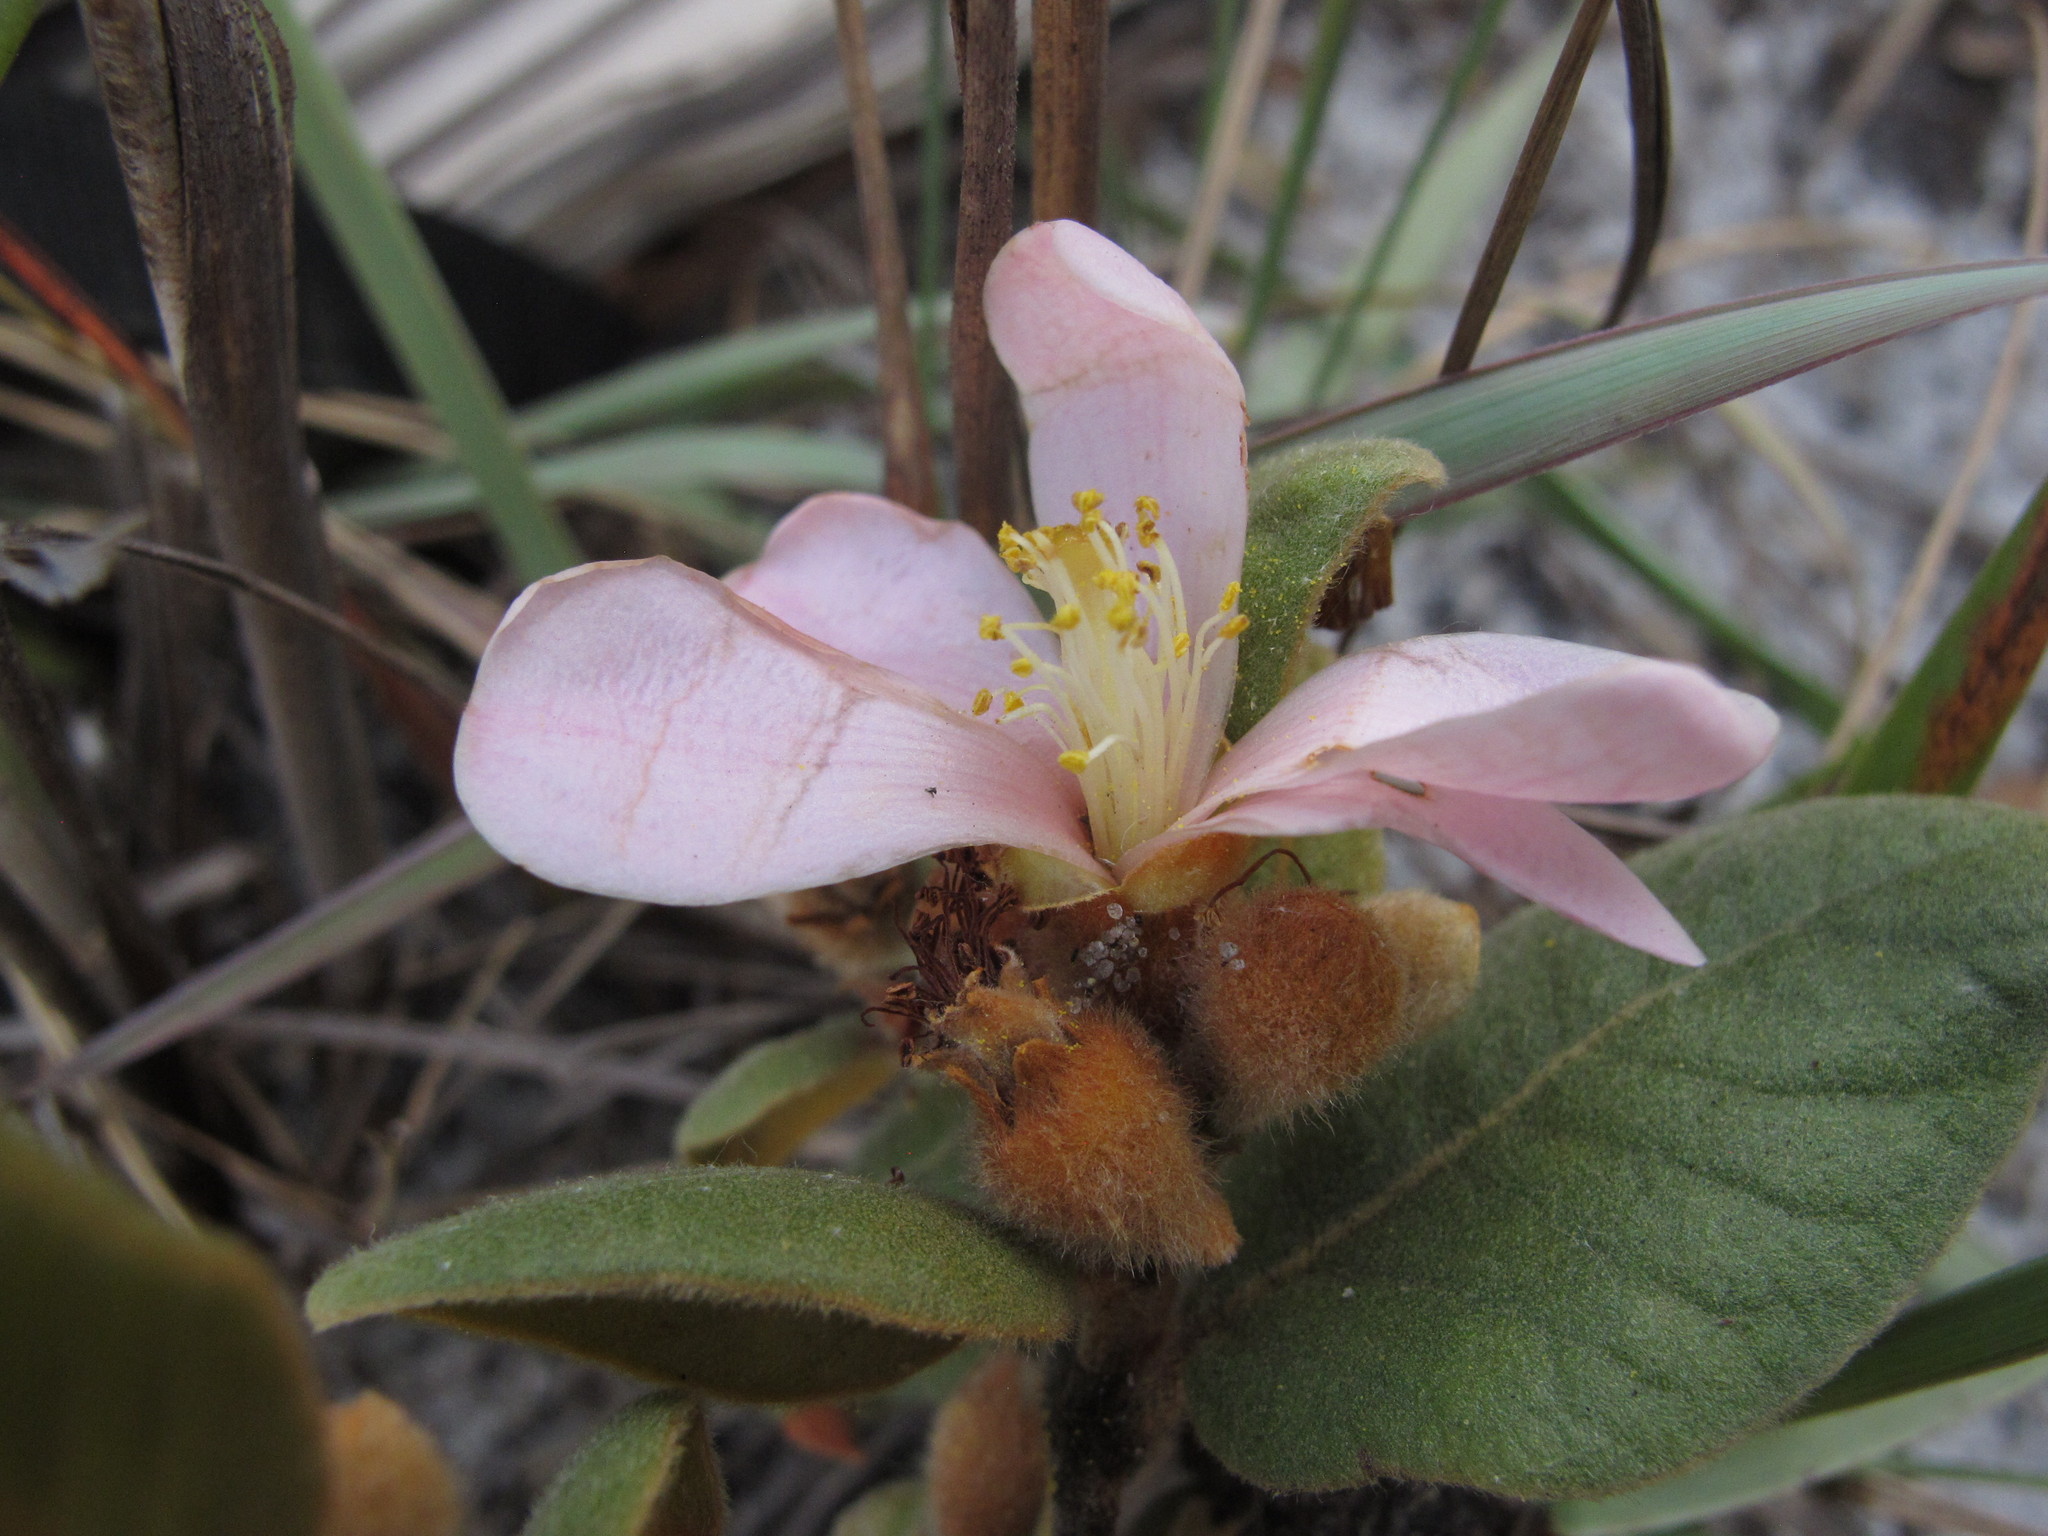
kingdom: Plantae
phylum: Tracheophyta
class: Magnoliopsida
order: Malvales
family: Sarcolaenaceae
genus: Xerochlamys
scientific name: Xerochlamys diospyroidea
